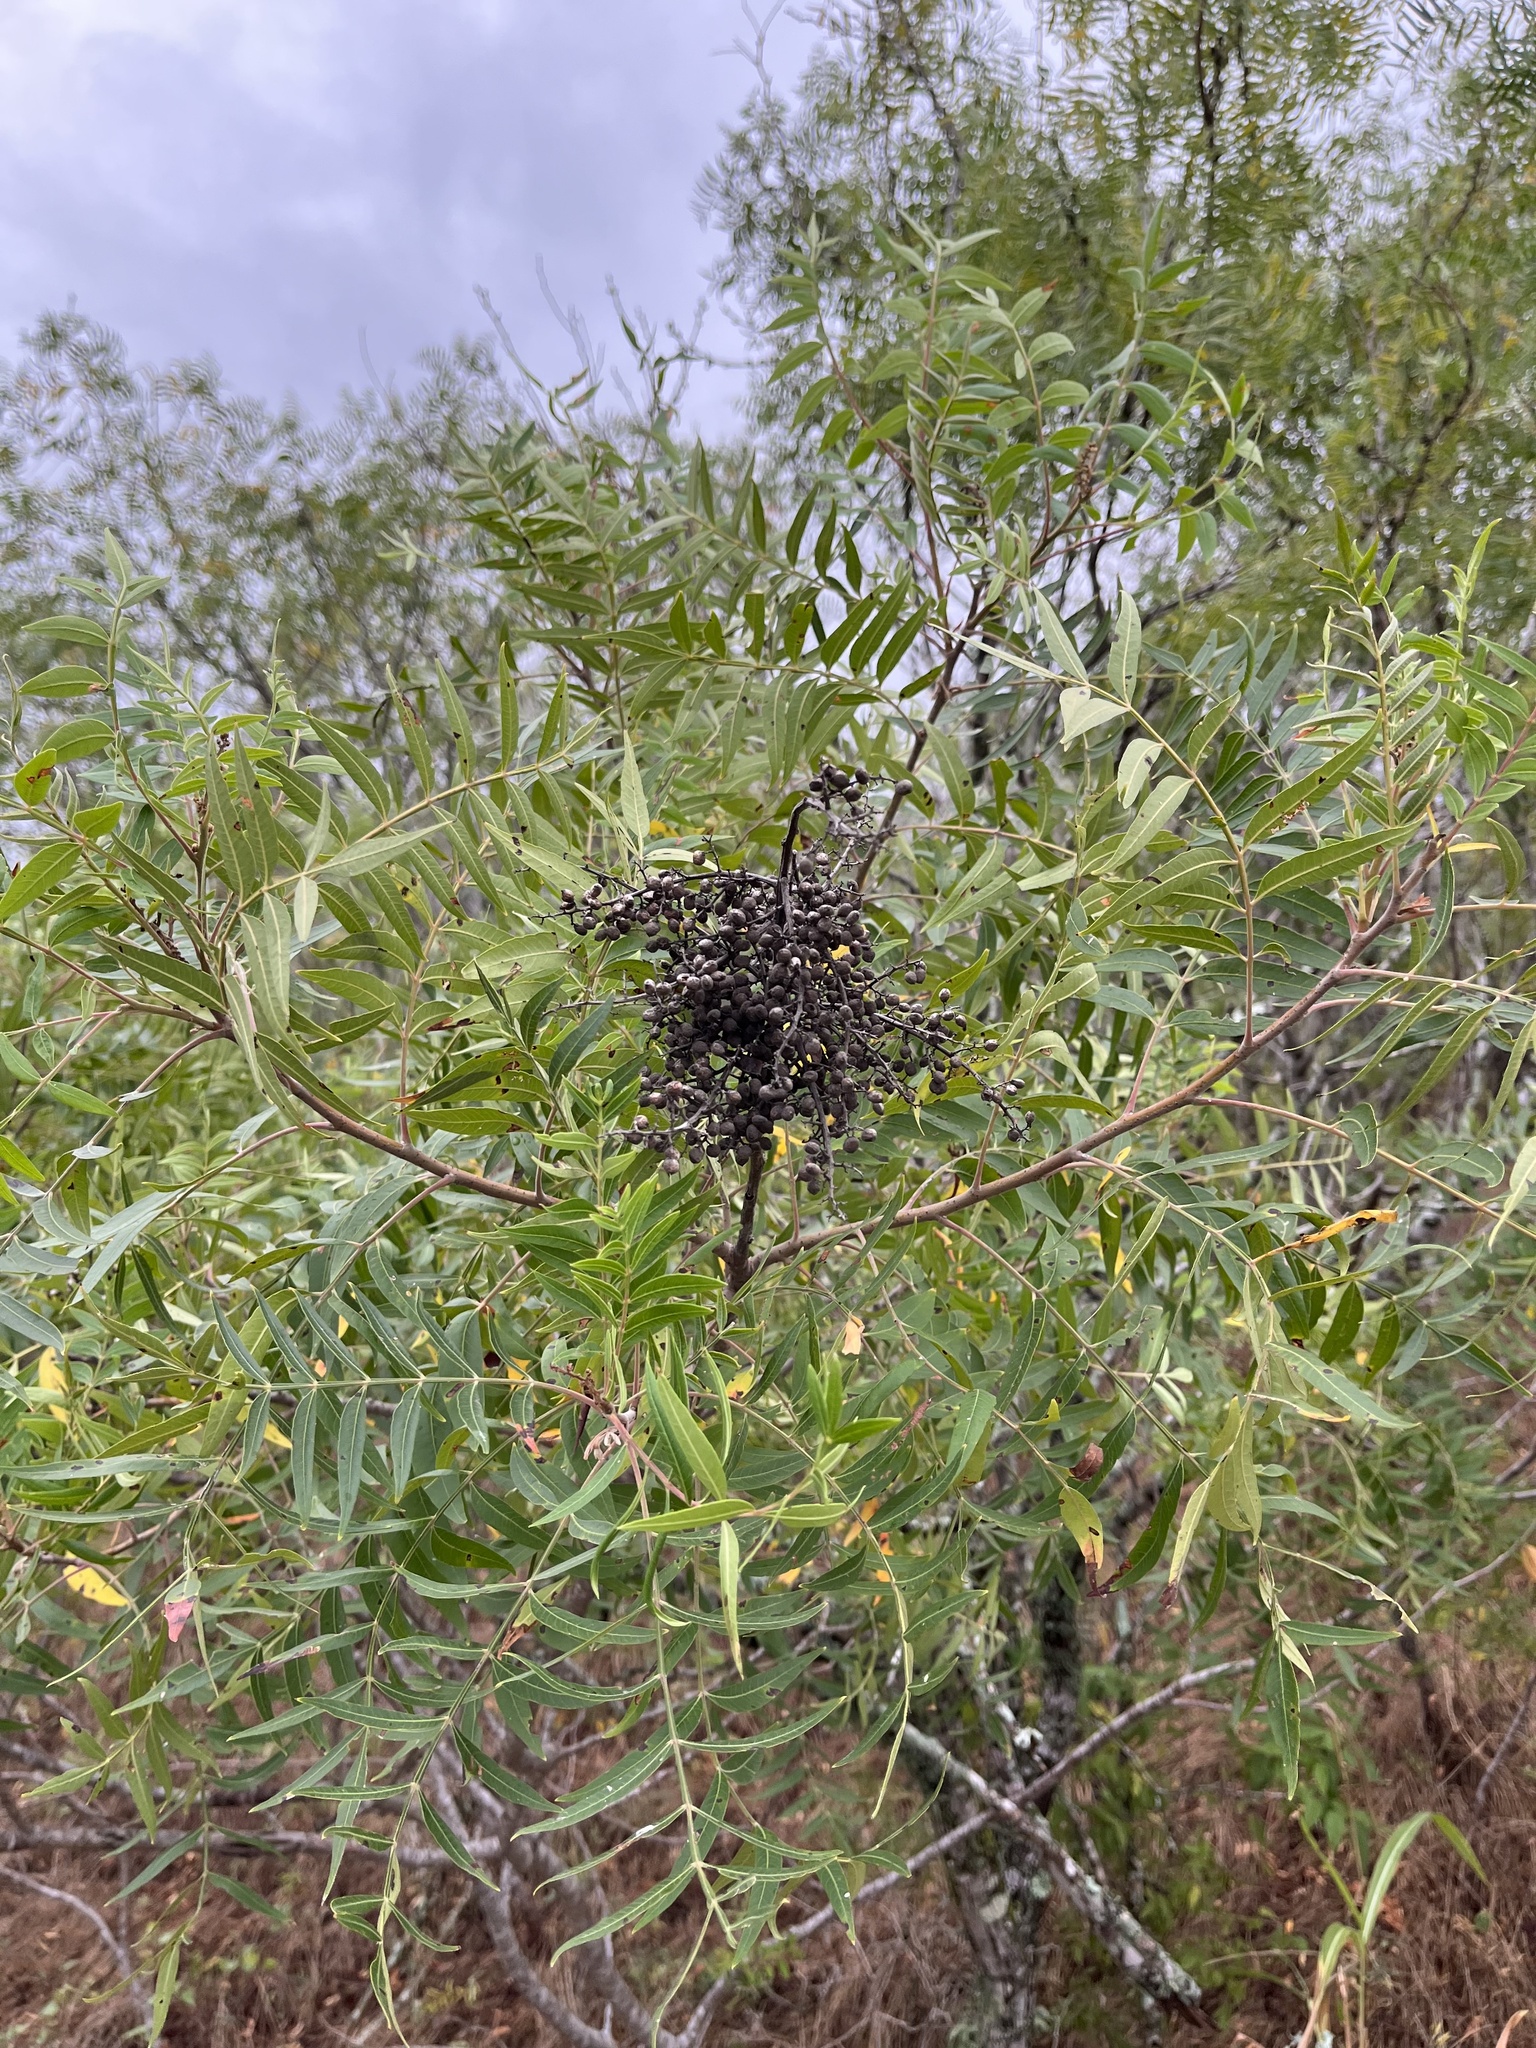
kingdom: Plantae
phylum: Tracheophyta
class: Magnoliopsida
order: Sapindales
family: Anacardiaceae
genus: Rhus
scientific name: Rhus lanceolata
